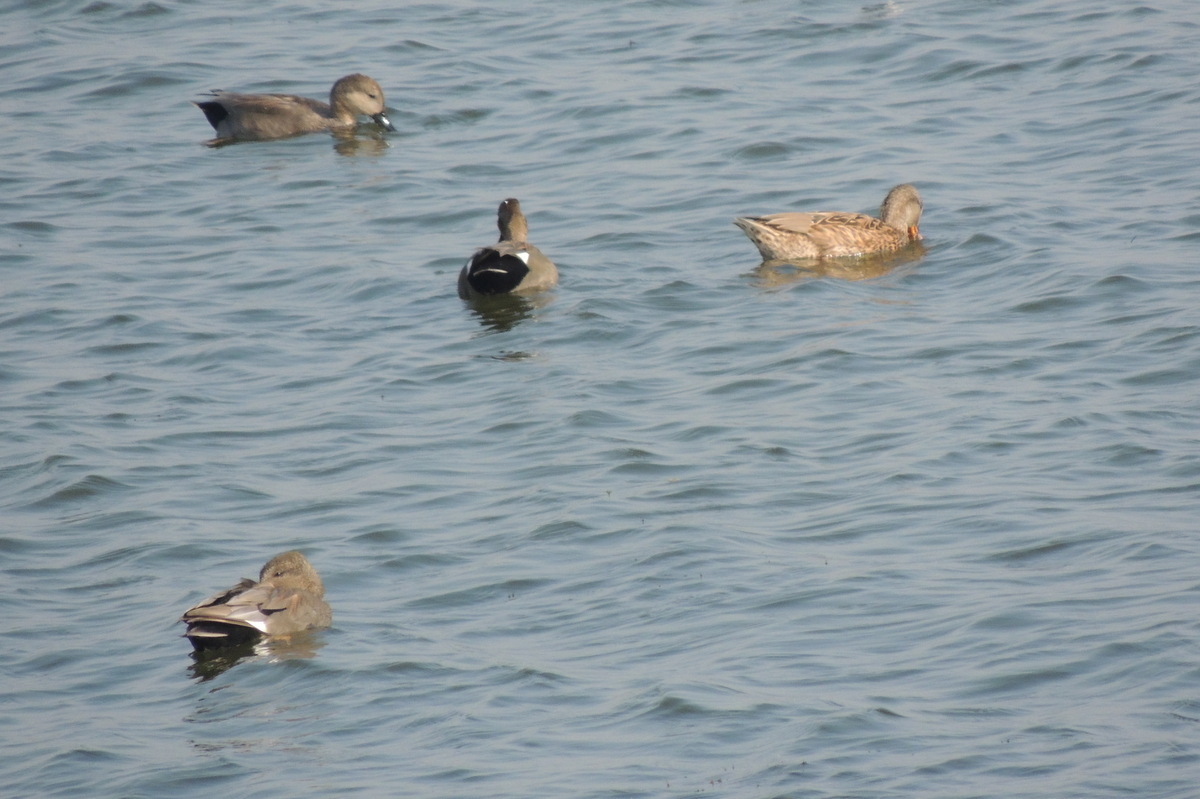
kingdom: Animalia
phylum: Chordata
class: Aves
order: Anseriformes
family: Anatidae
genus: Mareca
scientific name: Mareca strepera
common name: Gadwall
